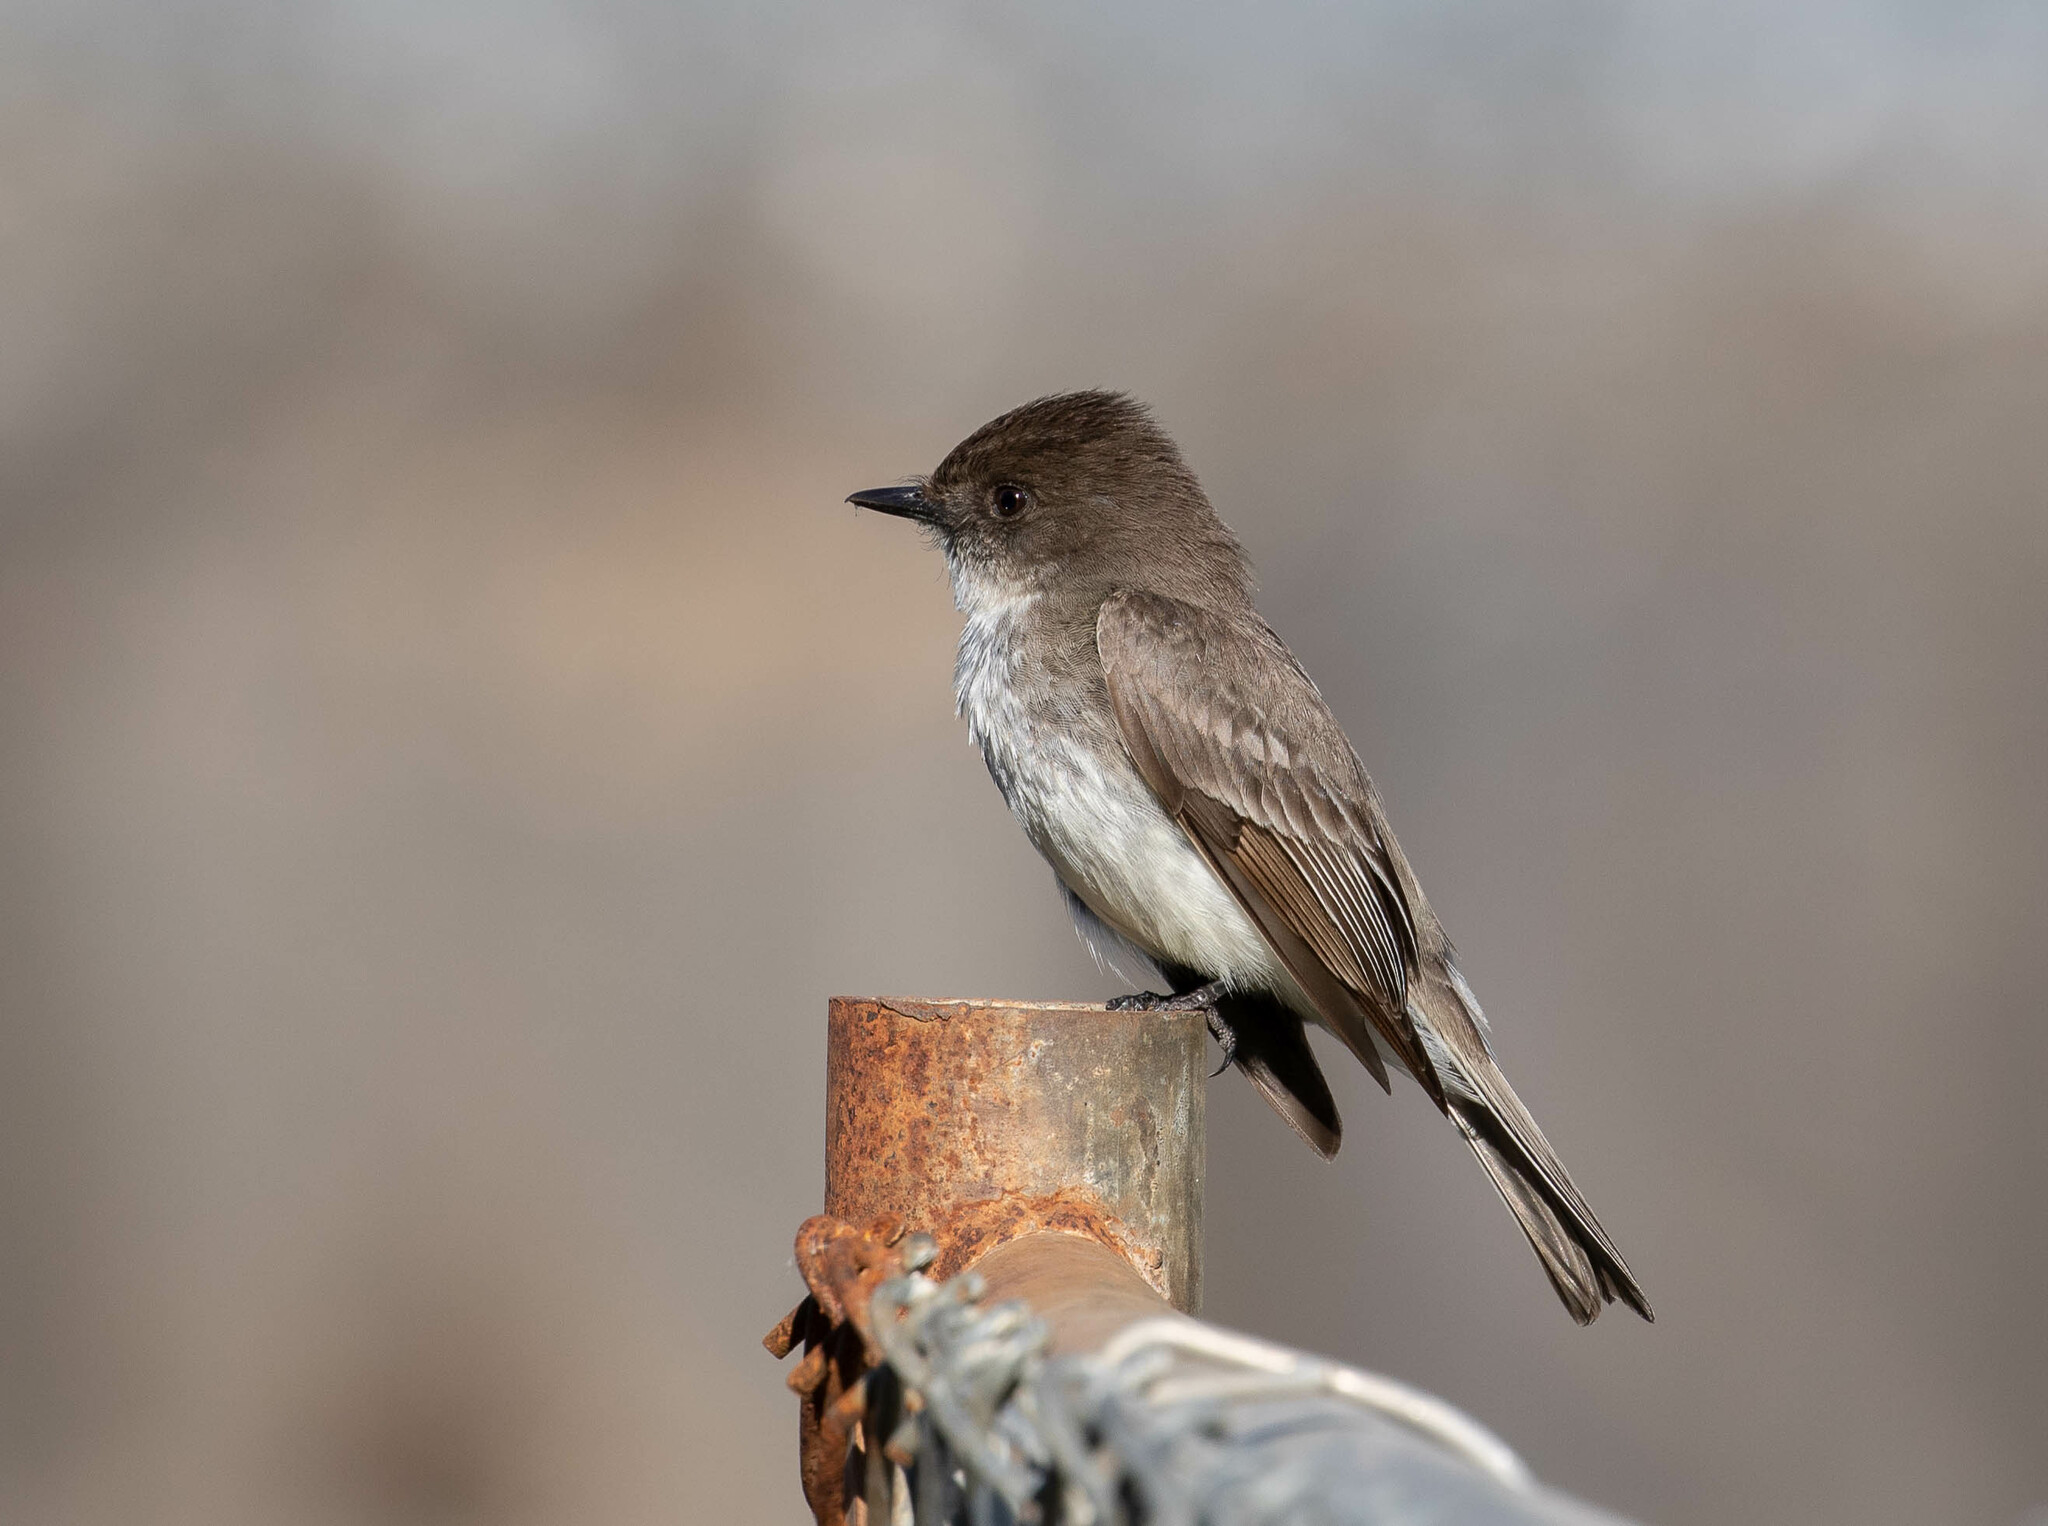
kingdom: Animalia
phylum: Chordata
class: Aves
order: Passeriformes
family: Tyrannidae
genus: Sayornis
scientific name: Sayornis phoebe
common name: Eastern phoebe
